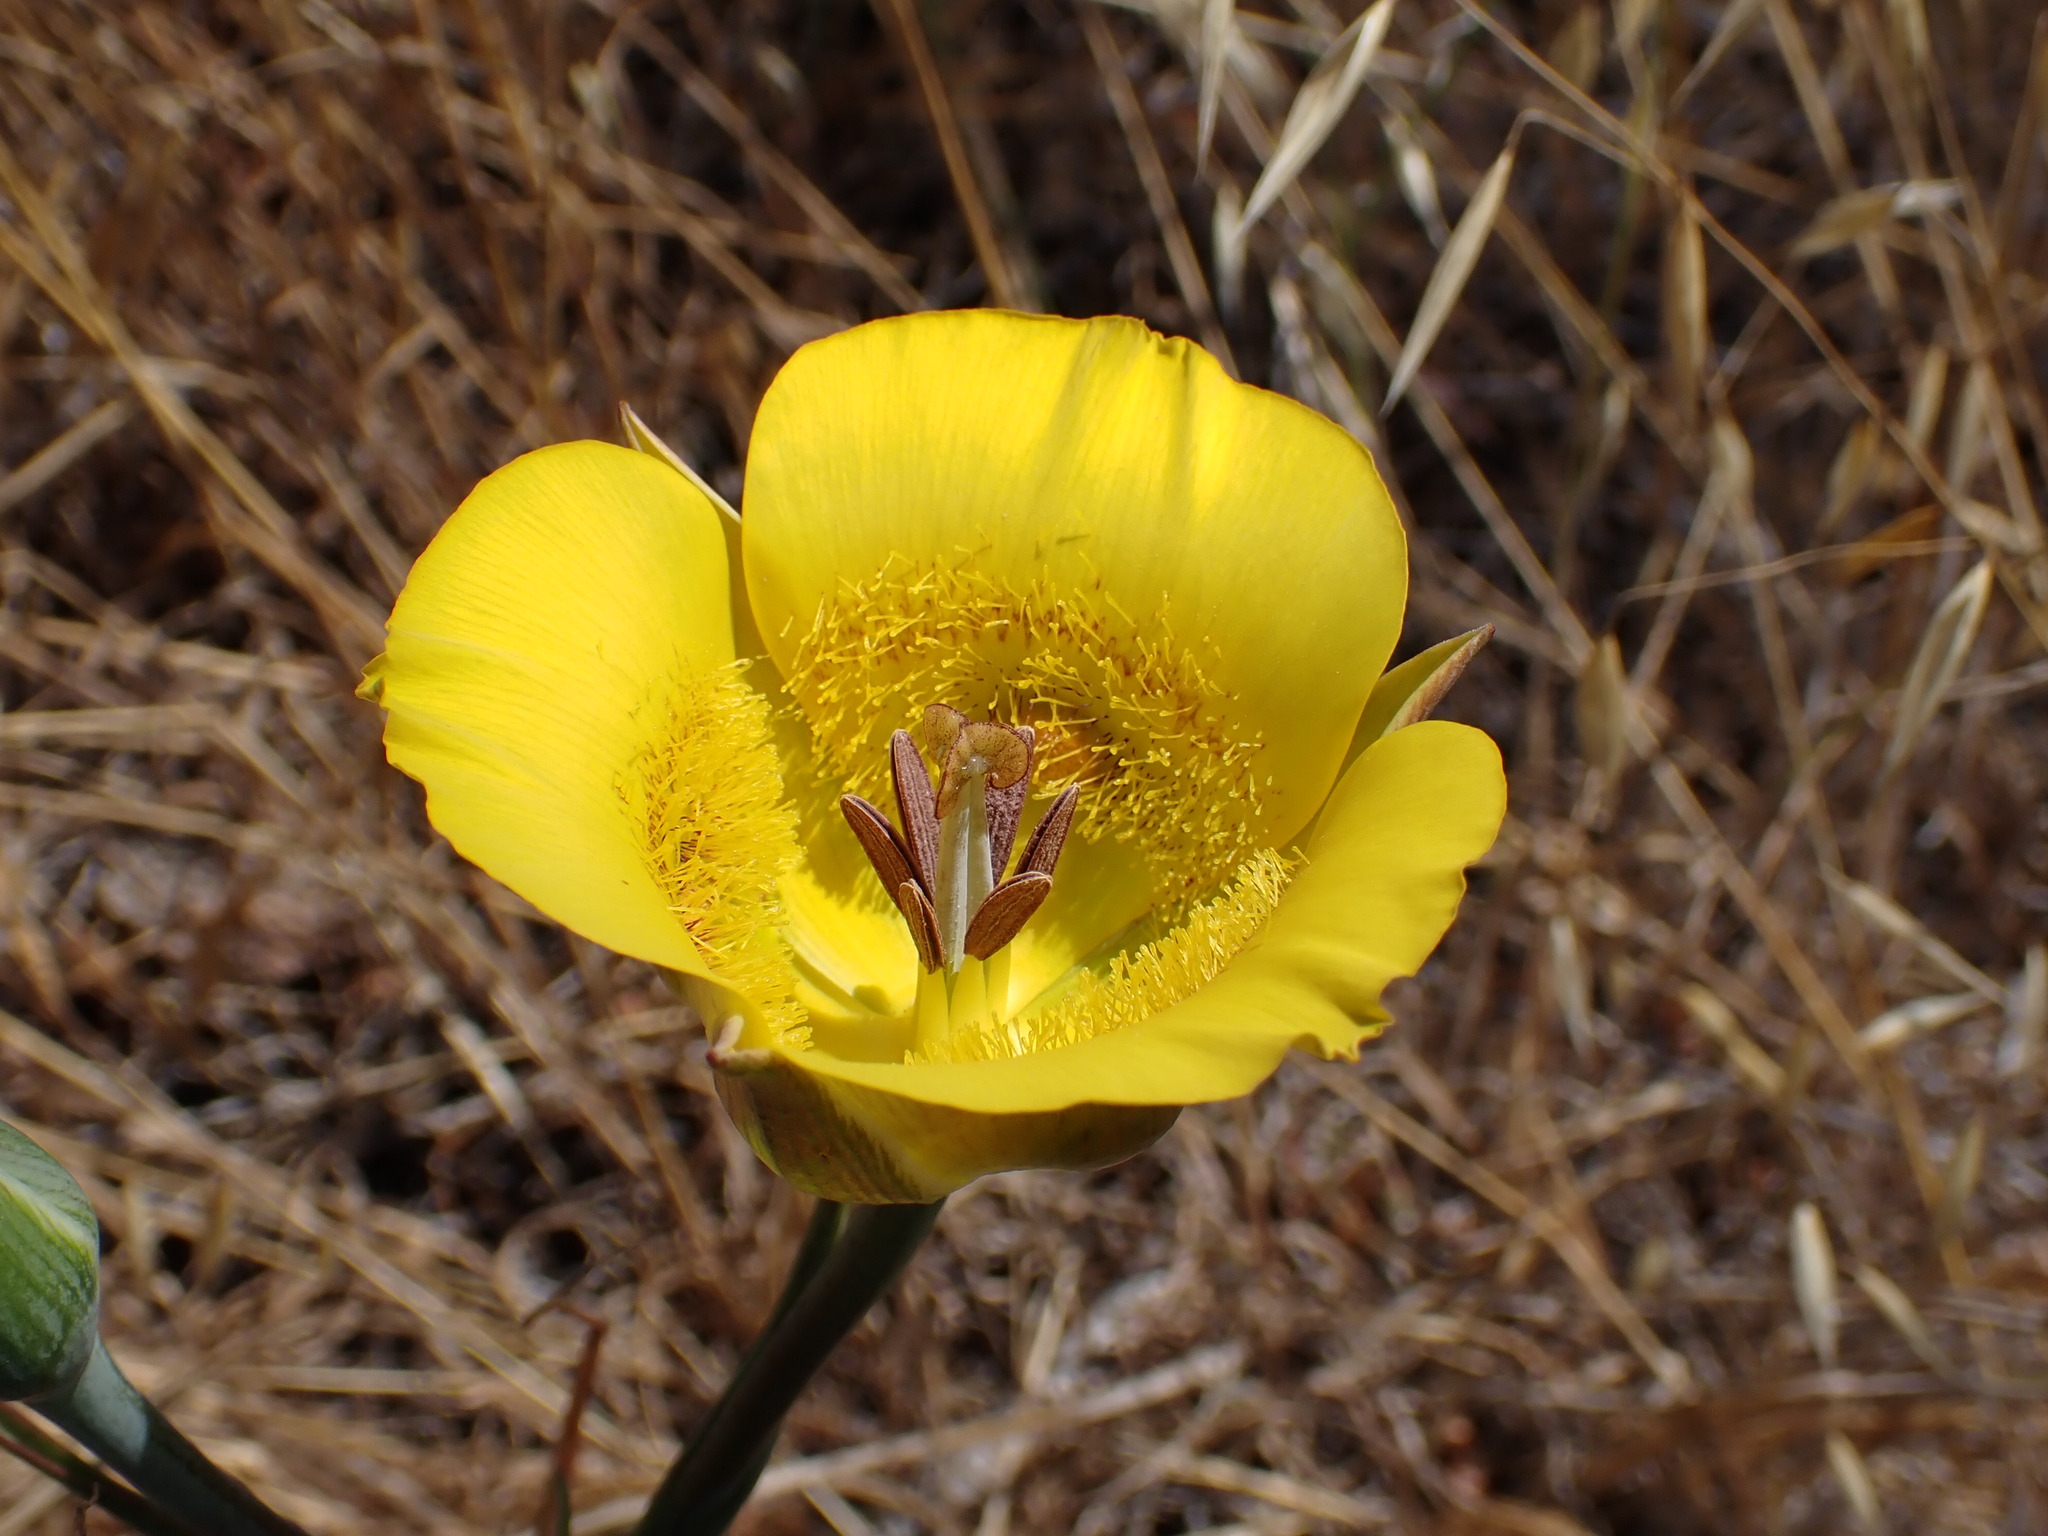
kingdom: Plantae
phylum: Tracheophyta
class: Liliopsida
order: Liliales
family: Liliaceae
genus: Calochortus
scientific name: Calochortus clavatus
